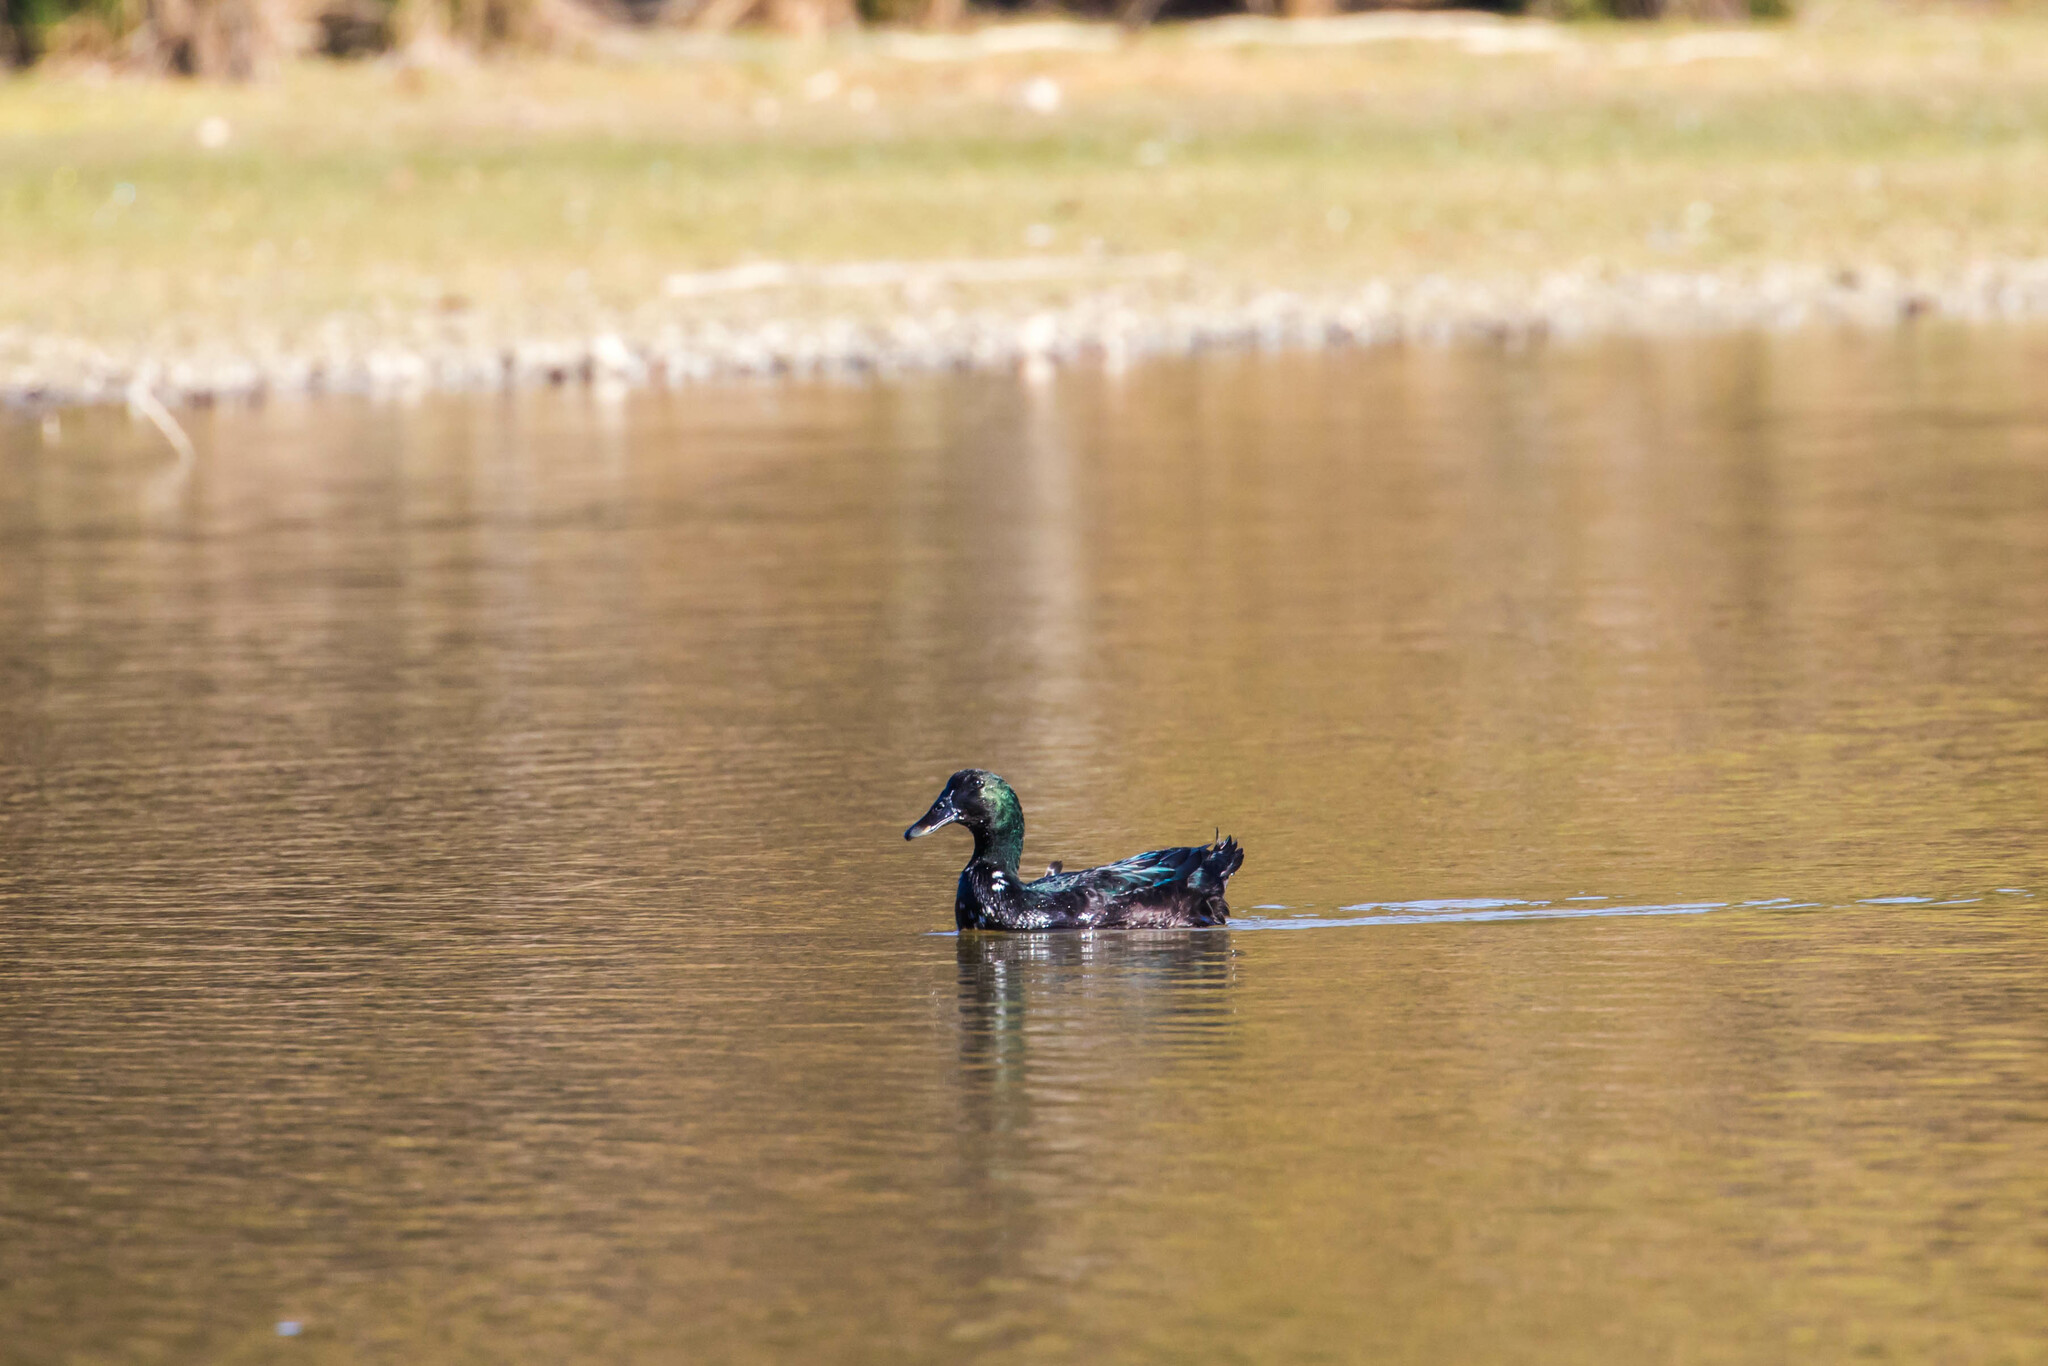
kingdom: Animalia
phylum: Chordata
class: Aves
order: Anseriformes
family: Anatidae
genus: Anas
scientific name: Anas platyrhynchos
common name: Mallard
